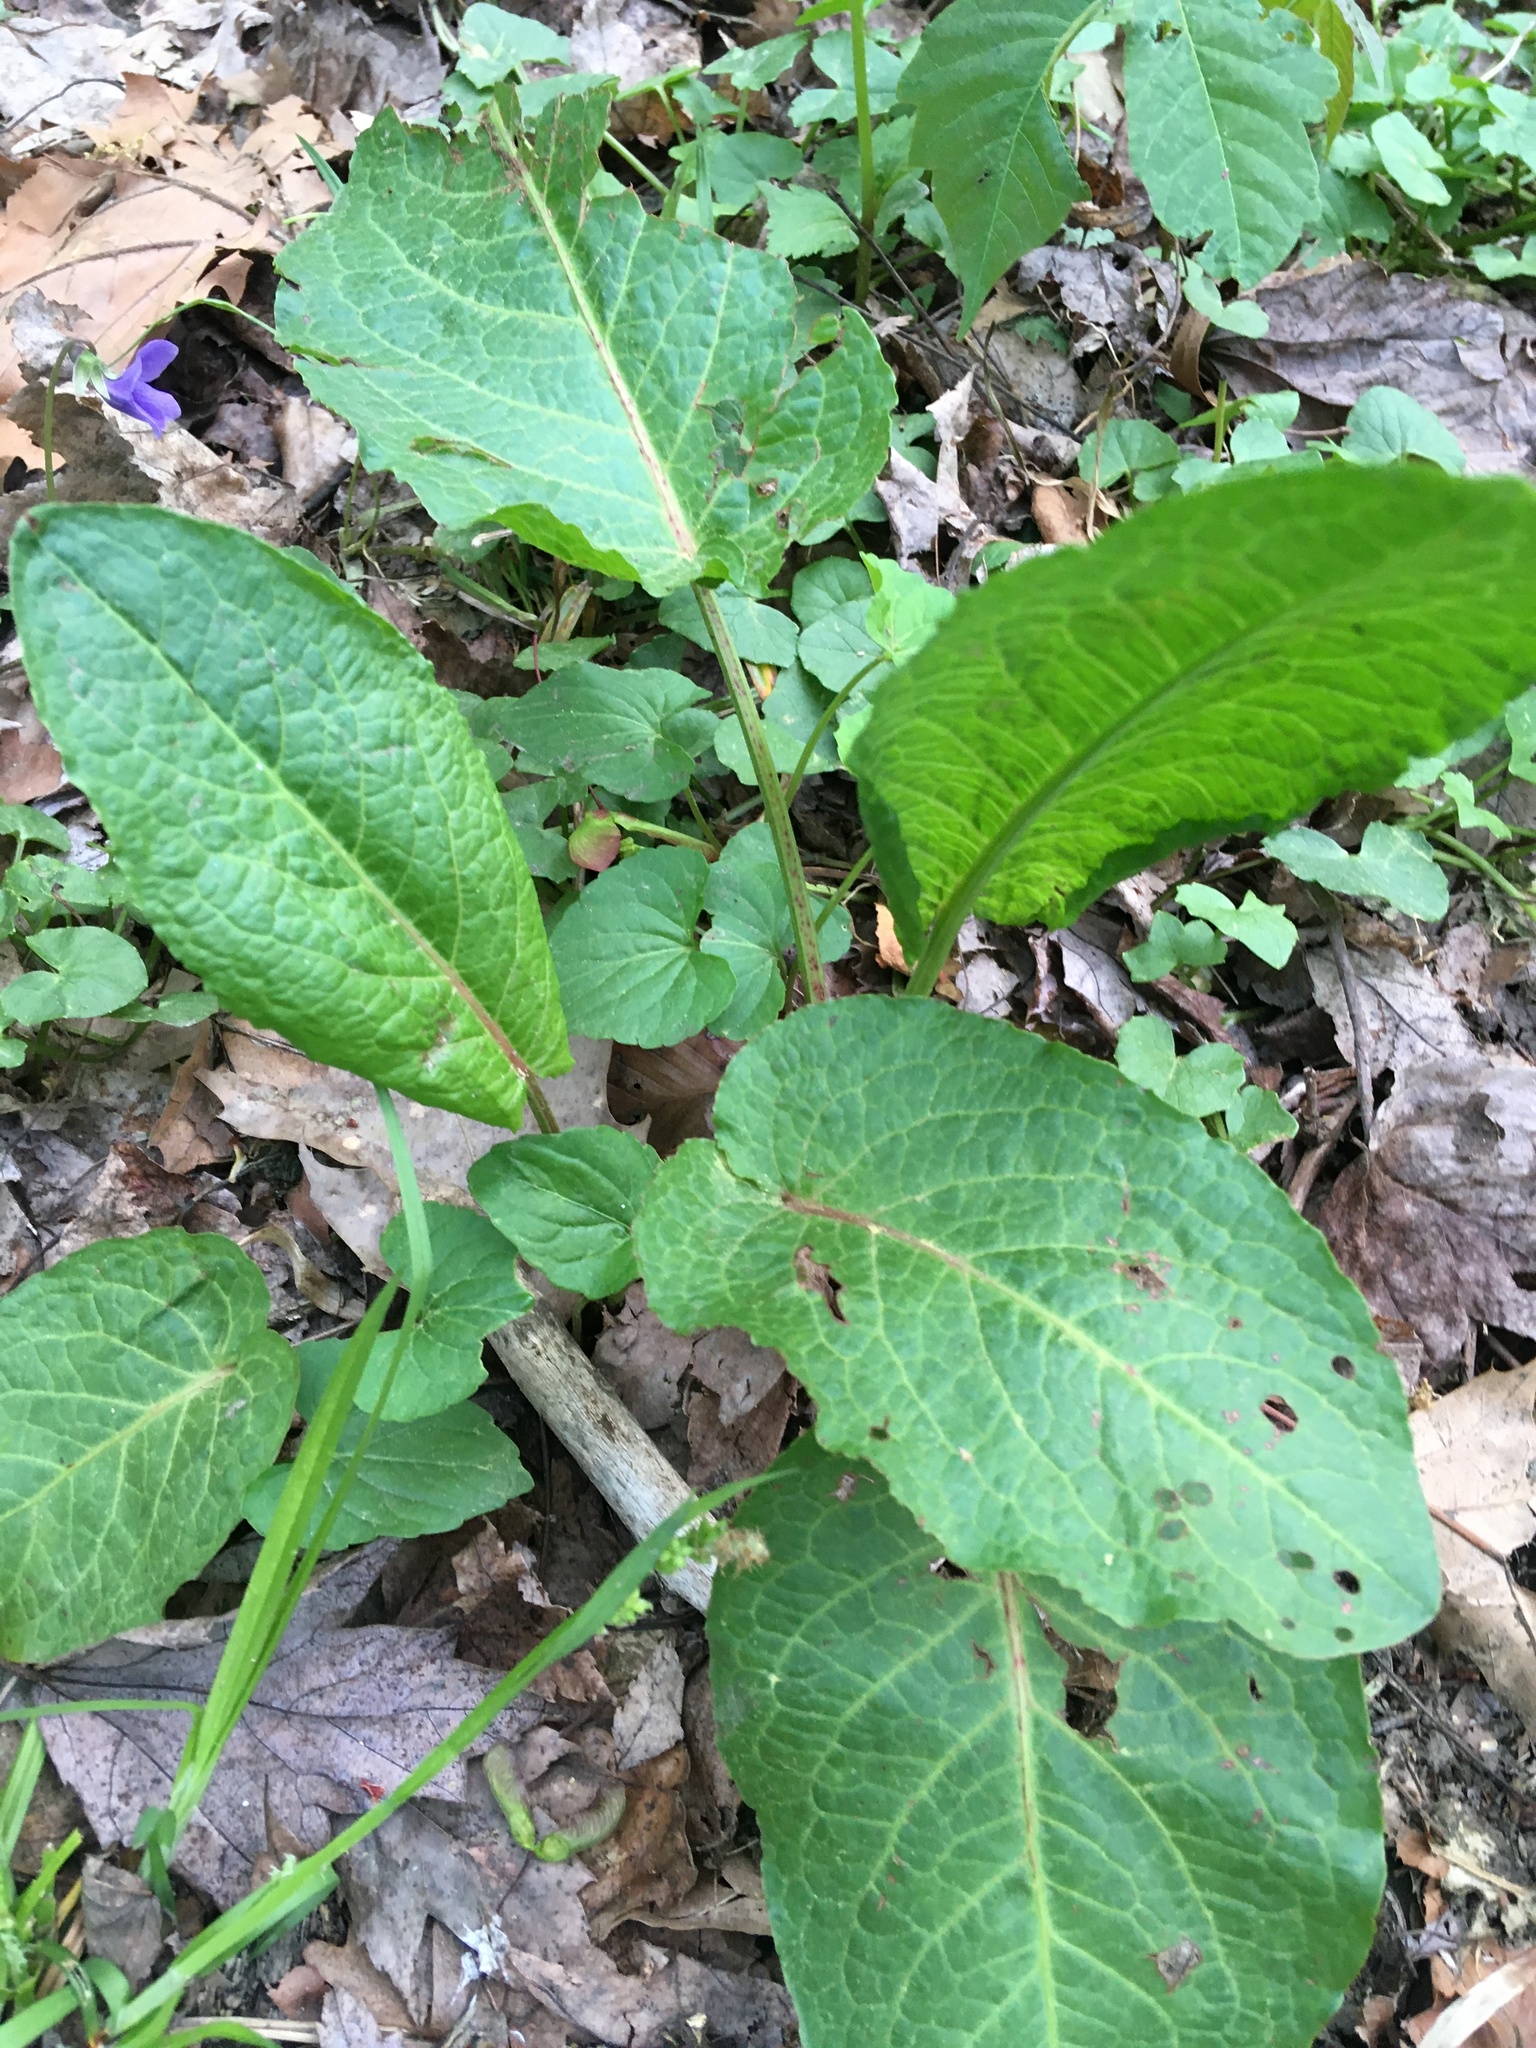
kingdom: Plantae
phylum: Tracheophyta
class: Magnoliopsida
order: Caryophyllales
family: Polygonaceae
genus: Rumex
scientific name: Rumex obtusifolius
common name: Bitter dock
